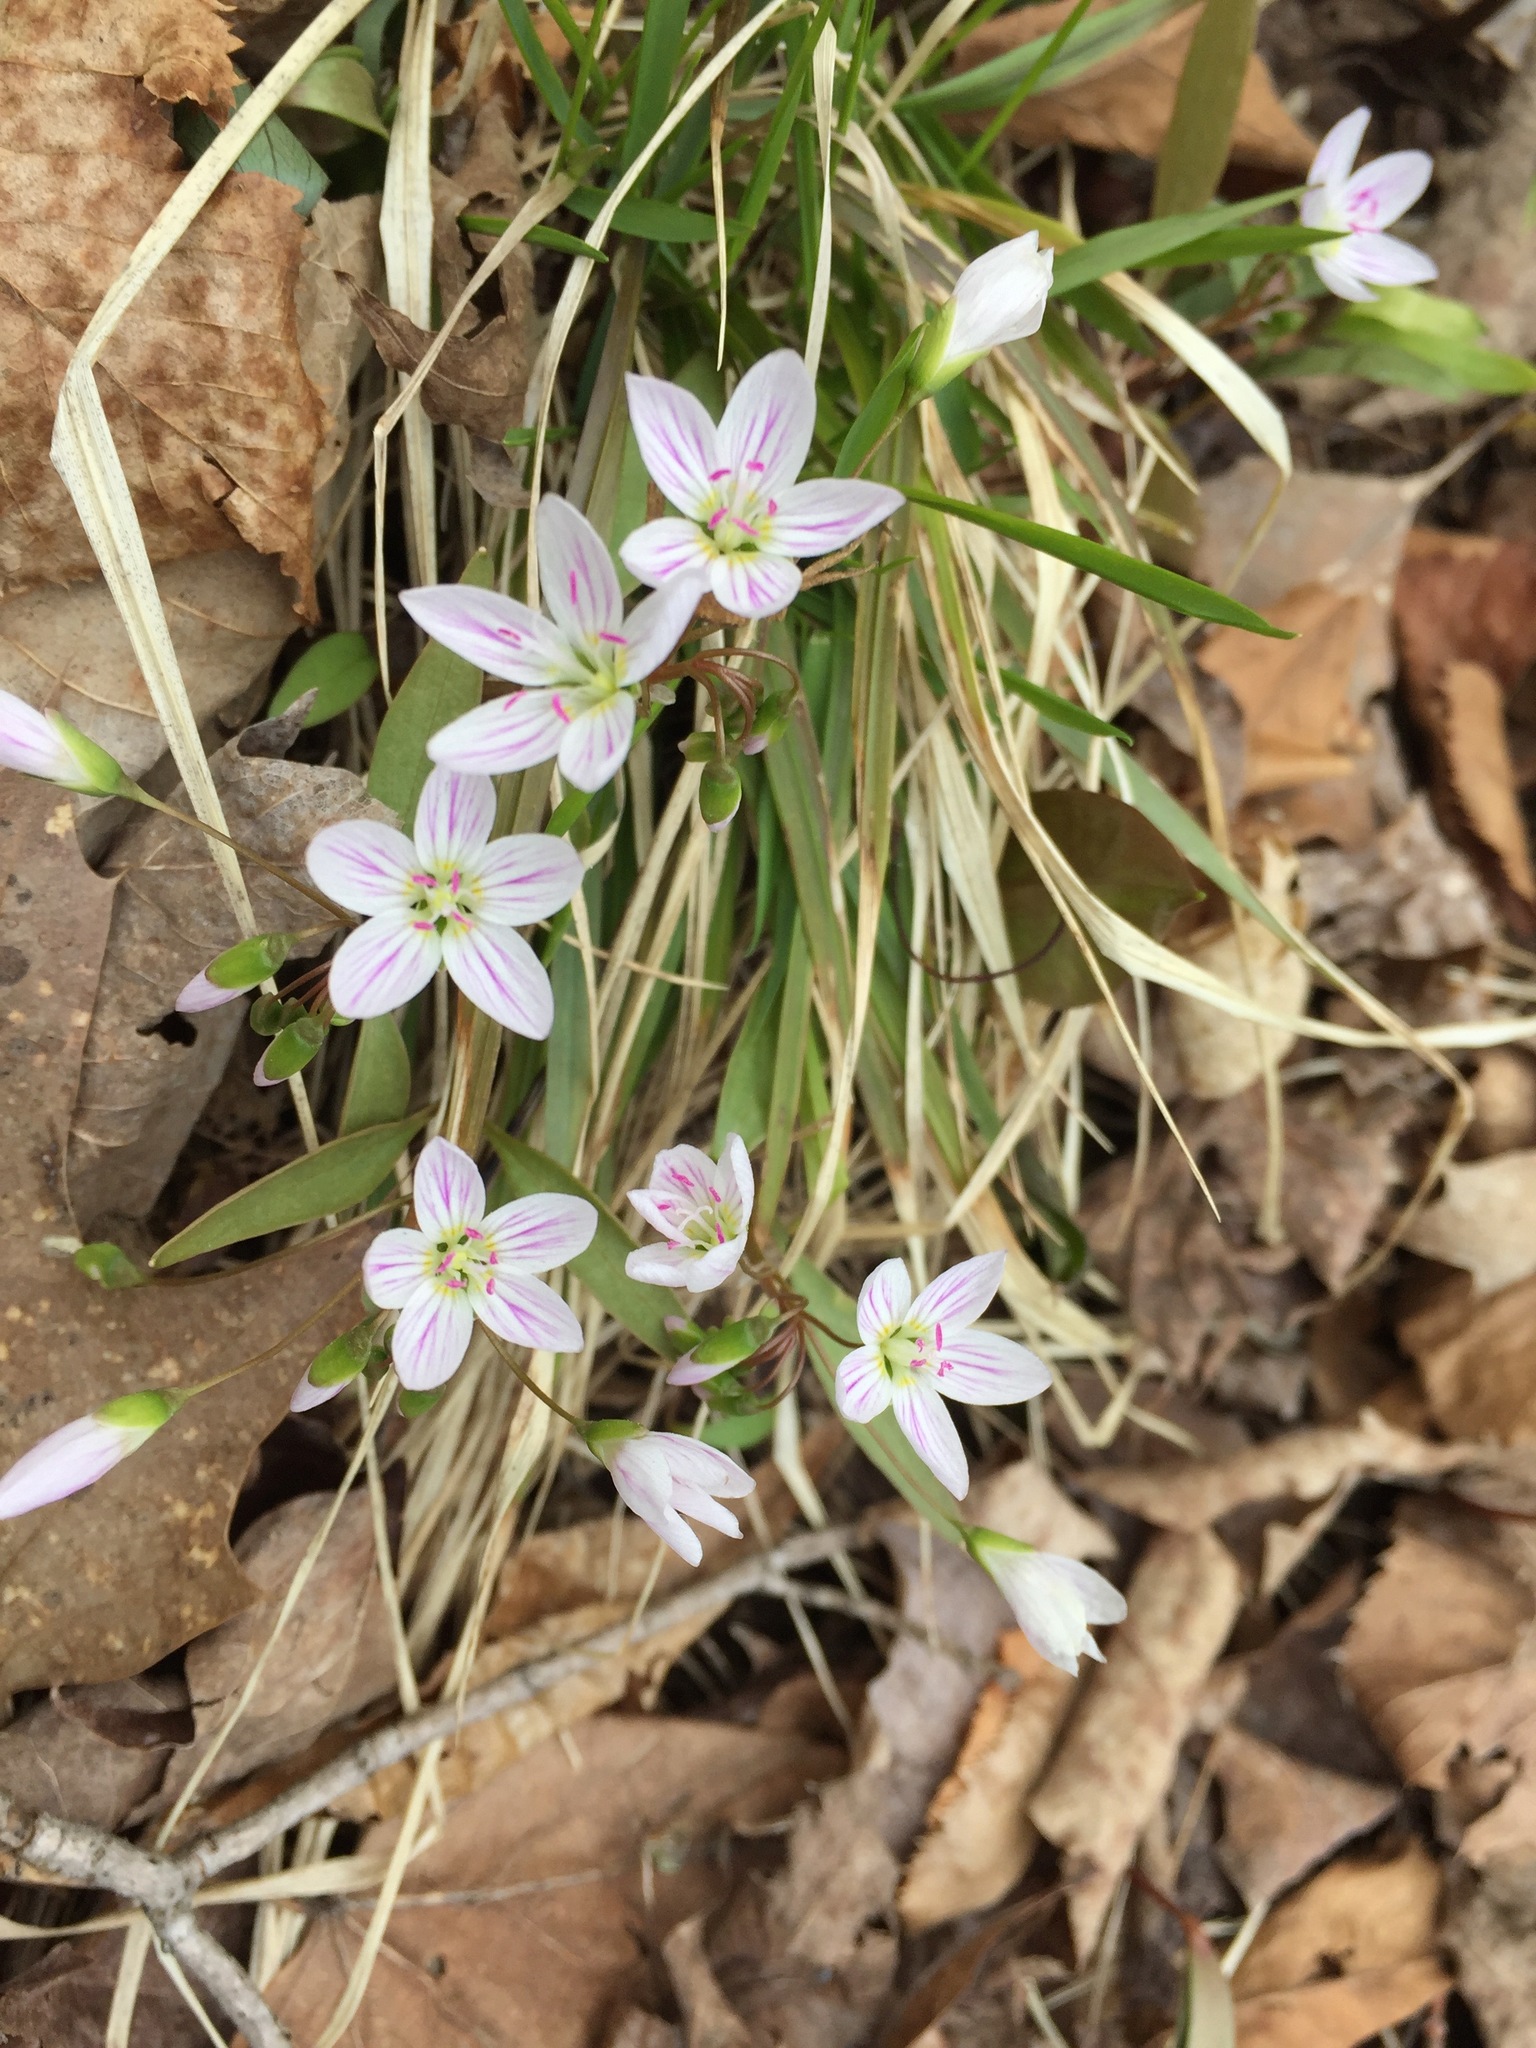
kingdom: Plantae
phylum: Tracheophyta
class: Magnoliopsida
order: Caryophyllales
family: Montiaceae
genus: Claytonia
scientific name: Claytonia caroliniana
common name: Carolina spring beauty
